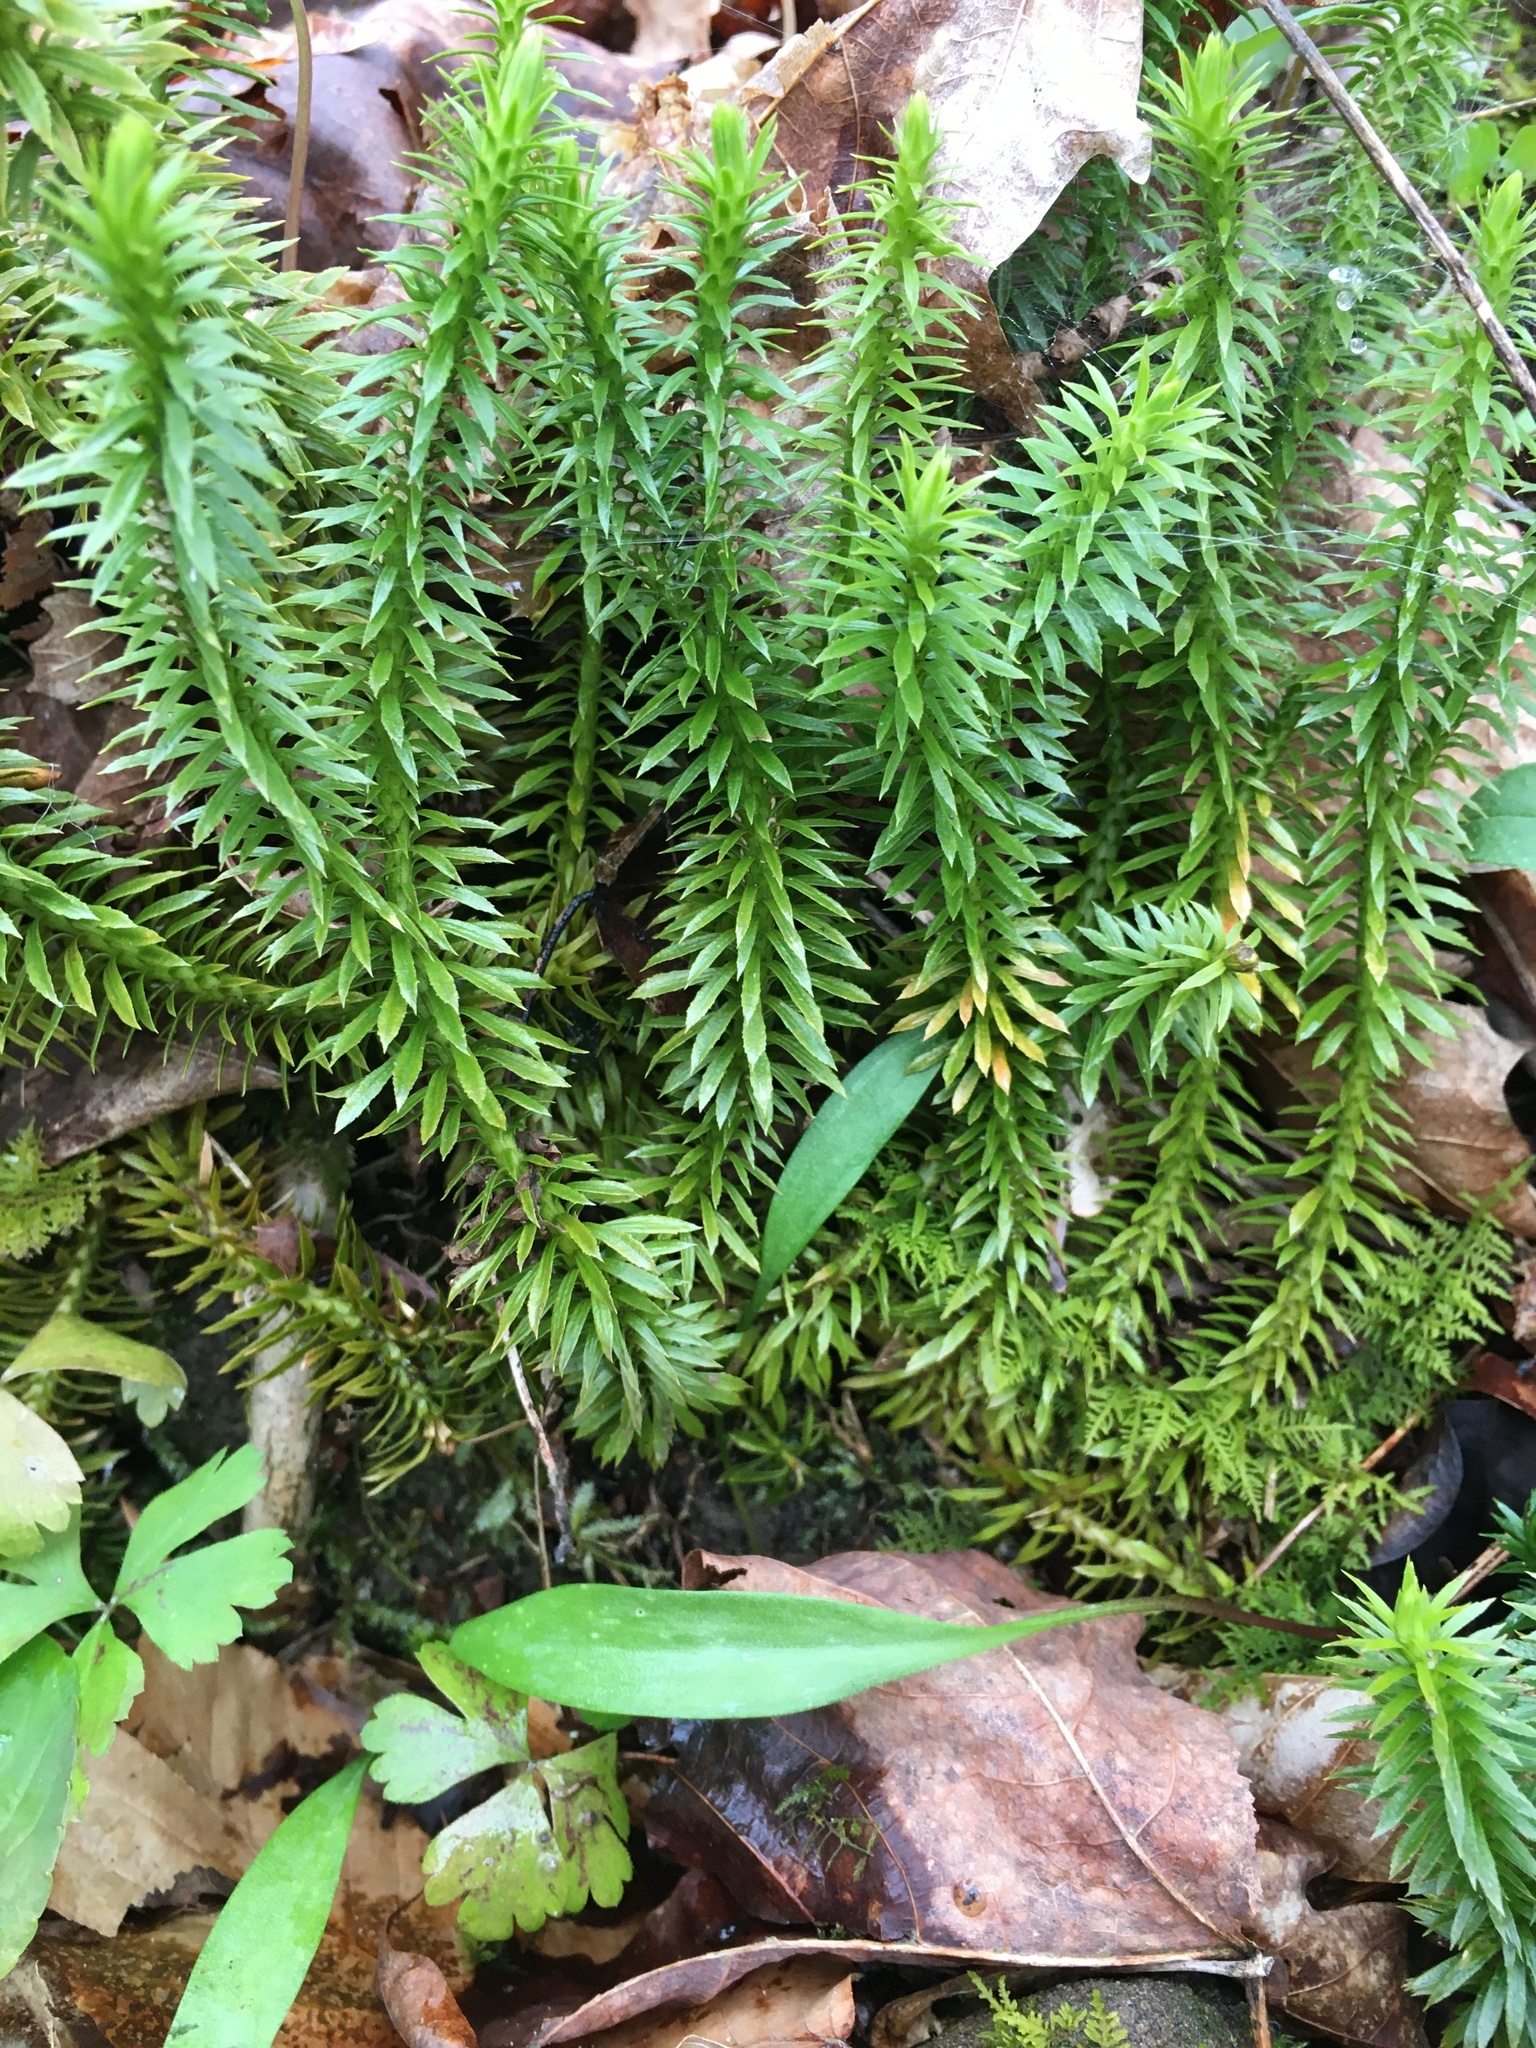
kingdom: Plantae
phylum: Tracheophyta
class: Lycopodiopsida
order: Lycopodiales
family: Lycopodiaceae
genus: Huperzia
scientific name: Huperzia lucidula
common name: Shining clubmoss
